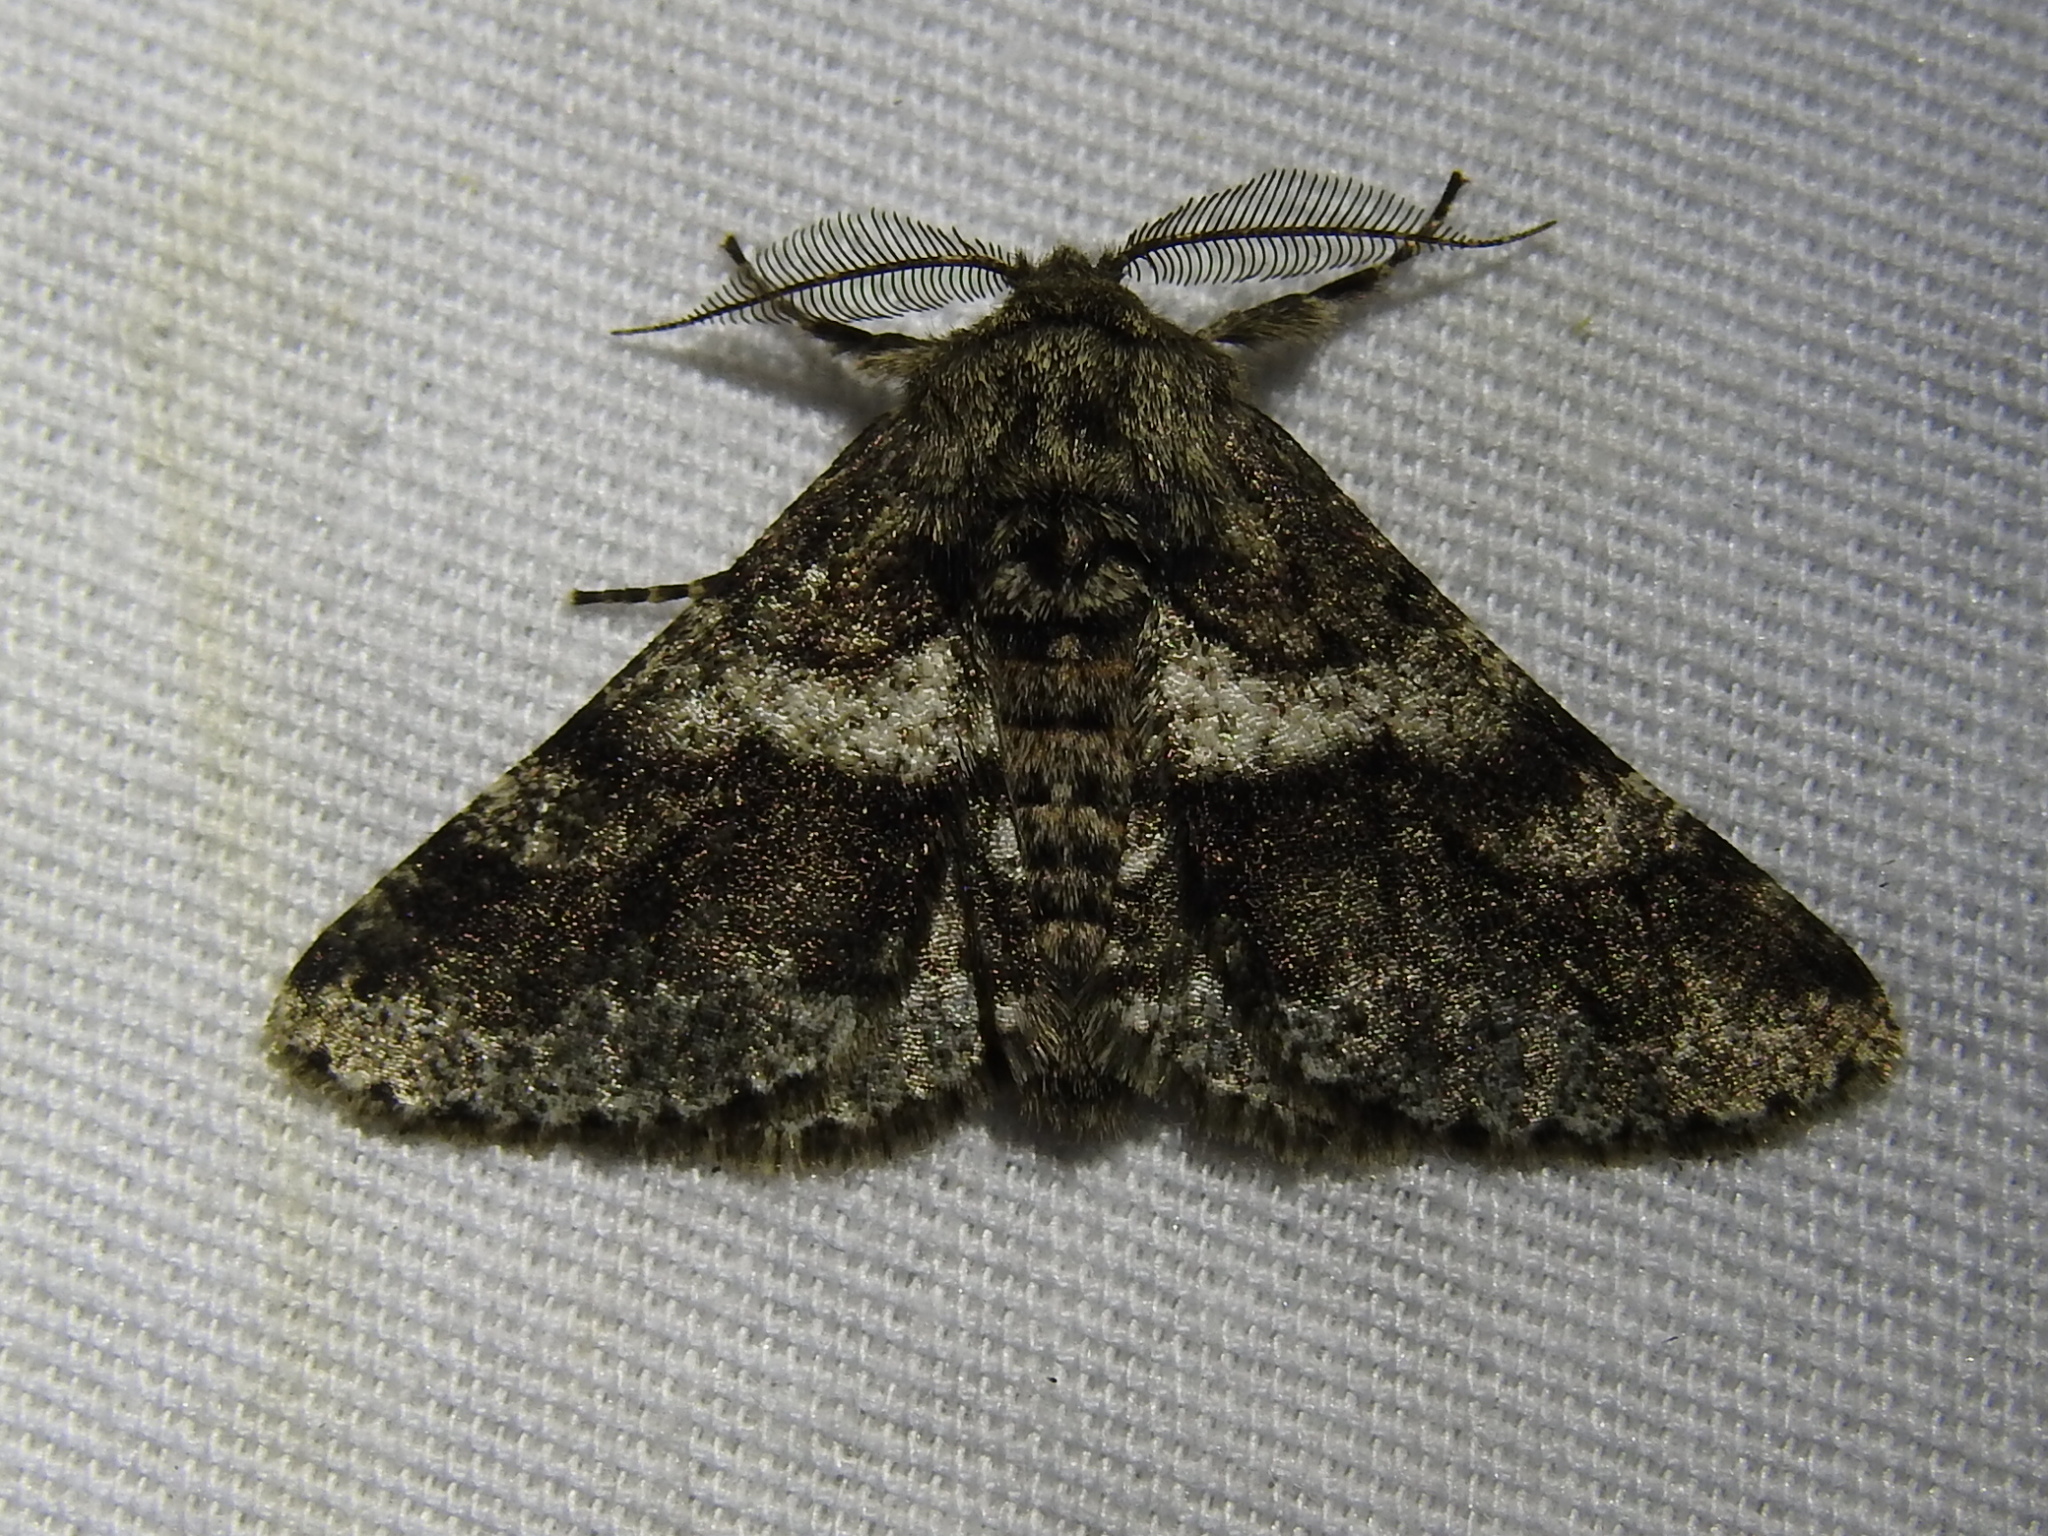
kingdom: Animalia
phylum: Arthropoda
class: Insecta
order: Lepidoptera
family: Geometridae
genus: Lycia
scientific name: Lycia ypsilon
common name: Wooly gray
